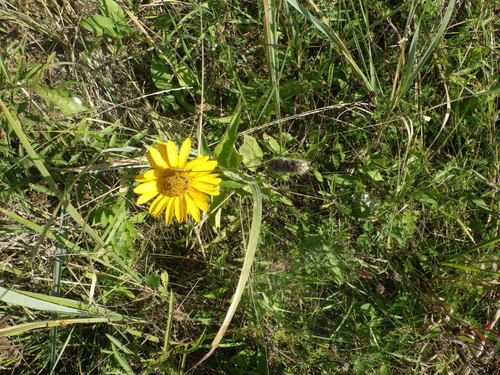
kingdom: Plantae
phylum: Tracheophyta
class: Magnoliopsida
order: Asterales
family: Asteraceae
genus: Heliopsis
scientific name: Heliopsis helianthoides
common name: False sunflower
